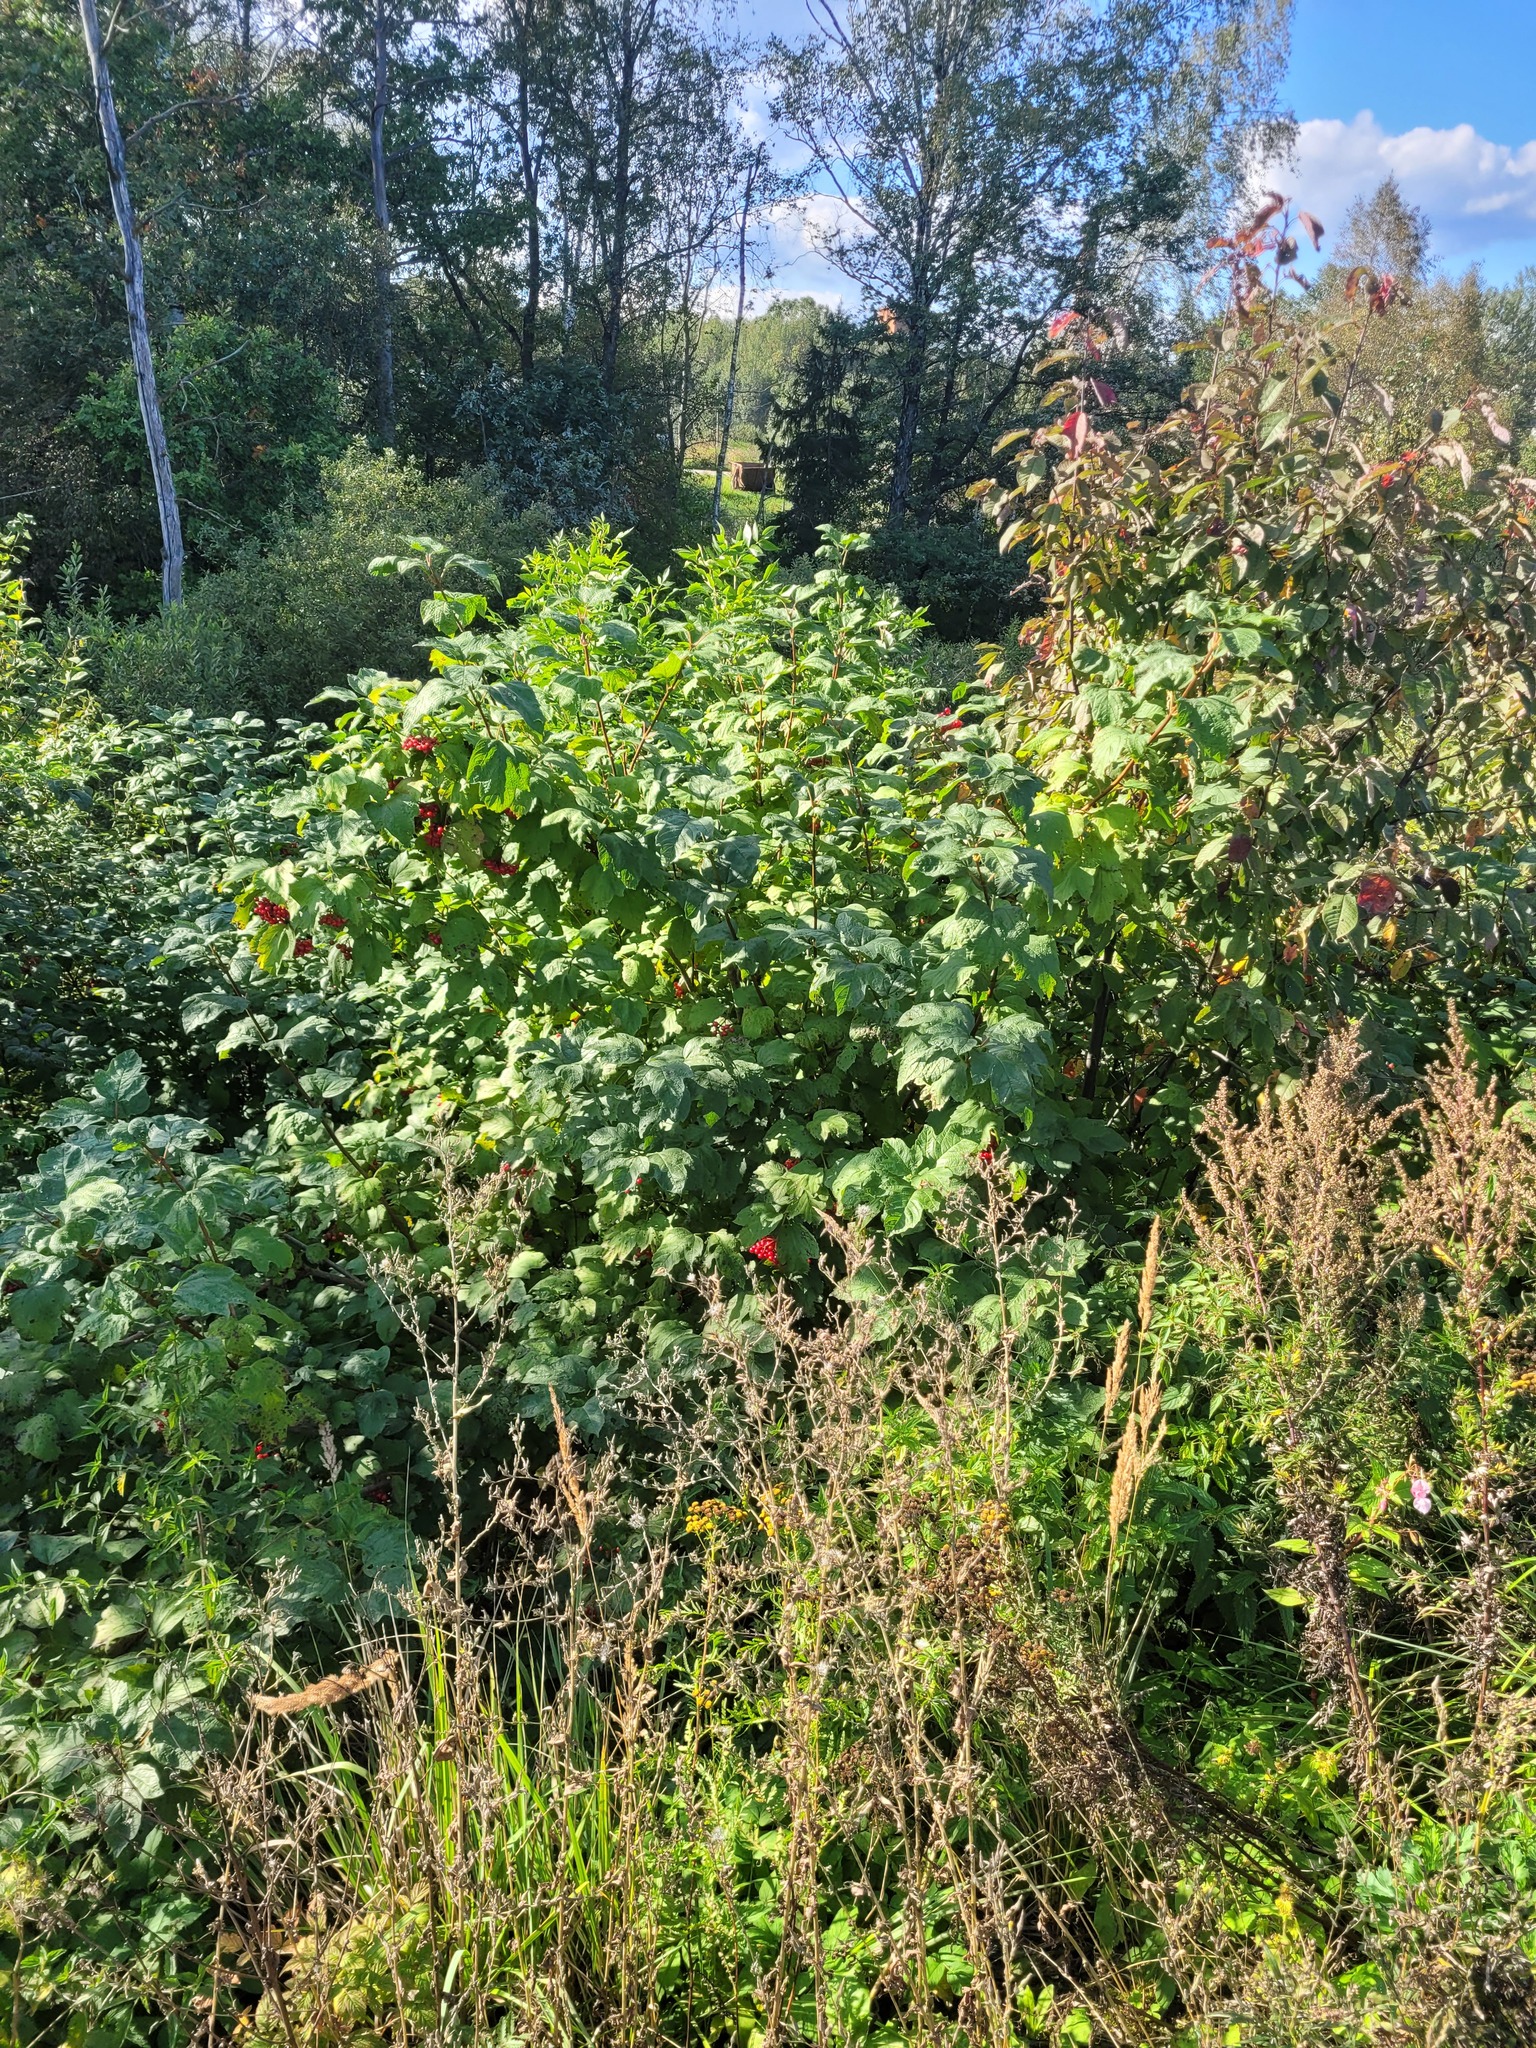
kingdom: Plantae
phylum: Tracheophyta
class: Magnoliopsida
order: Dipsacales
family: Viburnaceae
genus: Viburnum
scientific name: Viburnum opulus
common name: Guelder-rose
